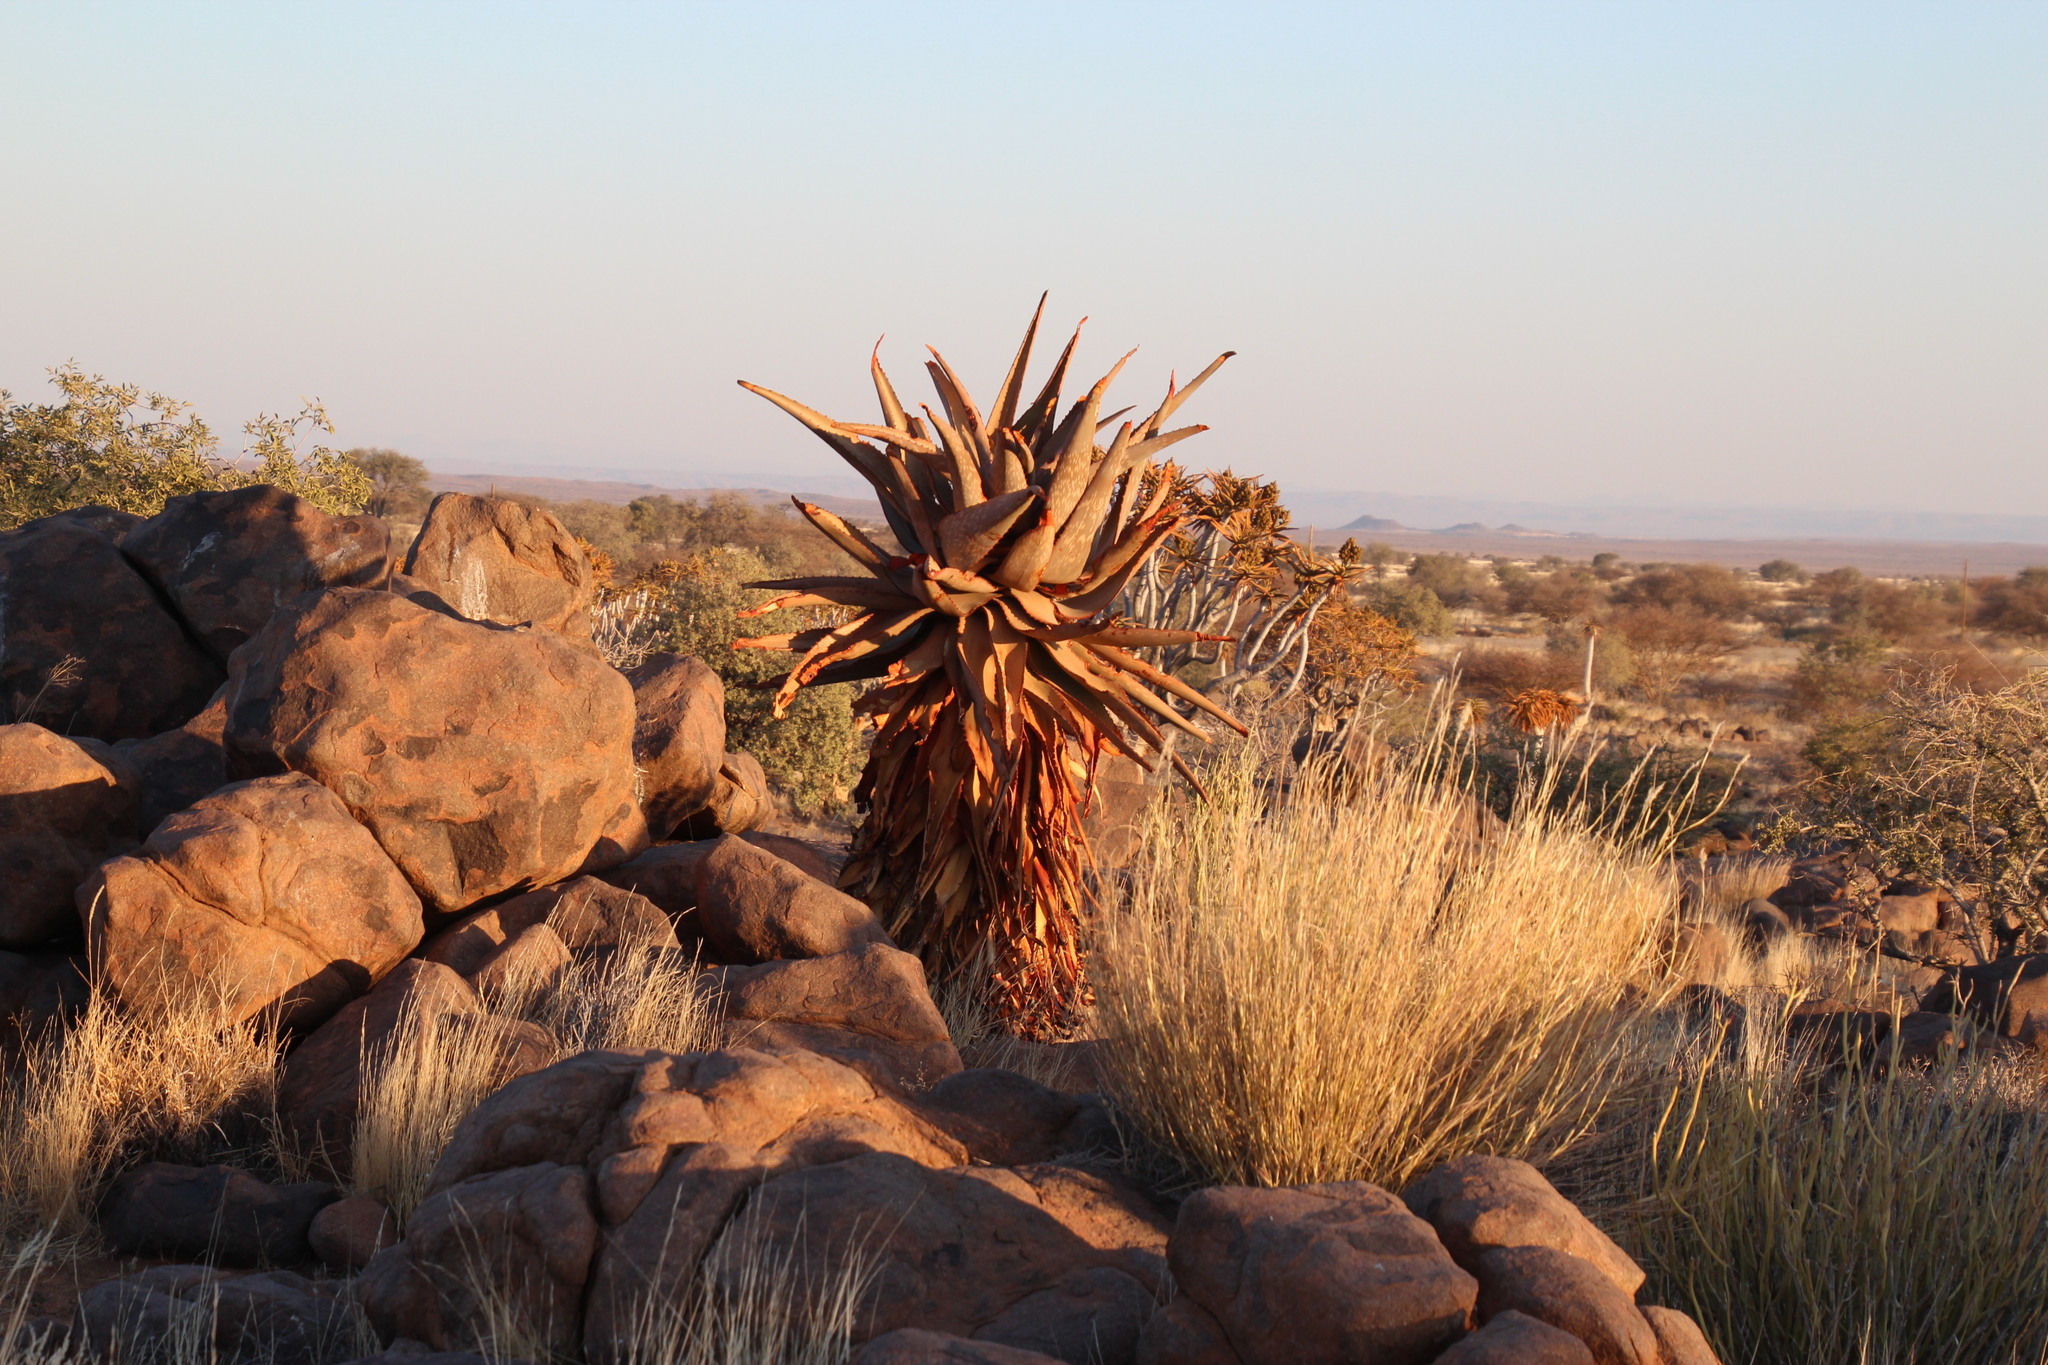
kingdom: Plantae
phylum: Tracheophyta
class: Liliopsida
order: Asparagales
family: Asphodelaceae
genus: Aloe
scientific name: Aloe littoralis
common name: Luanda tree aloe
